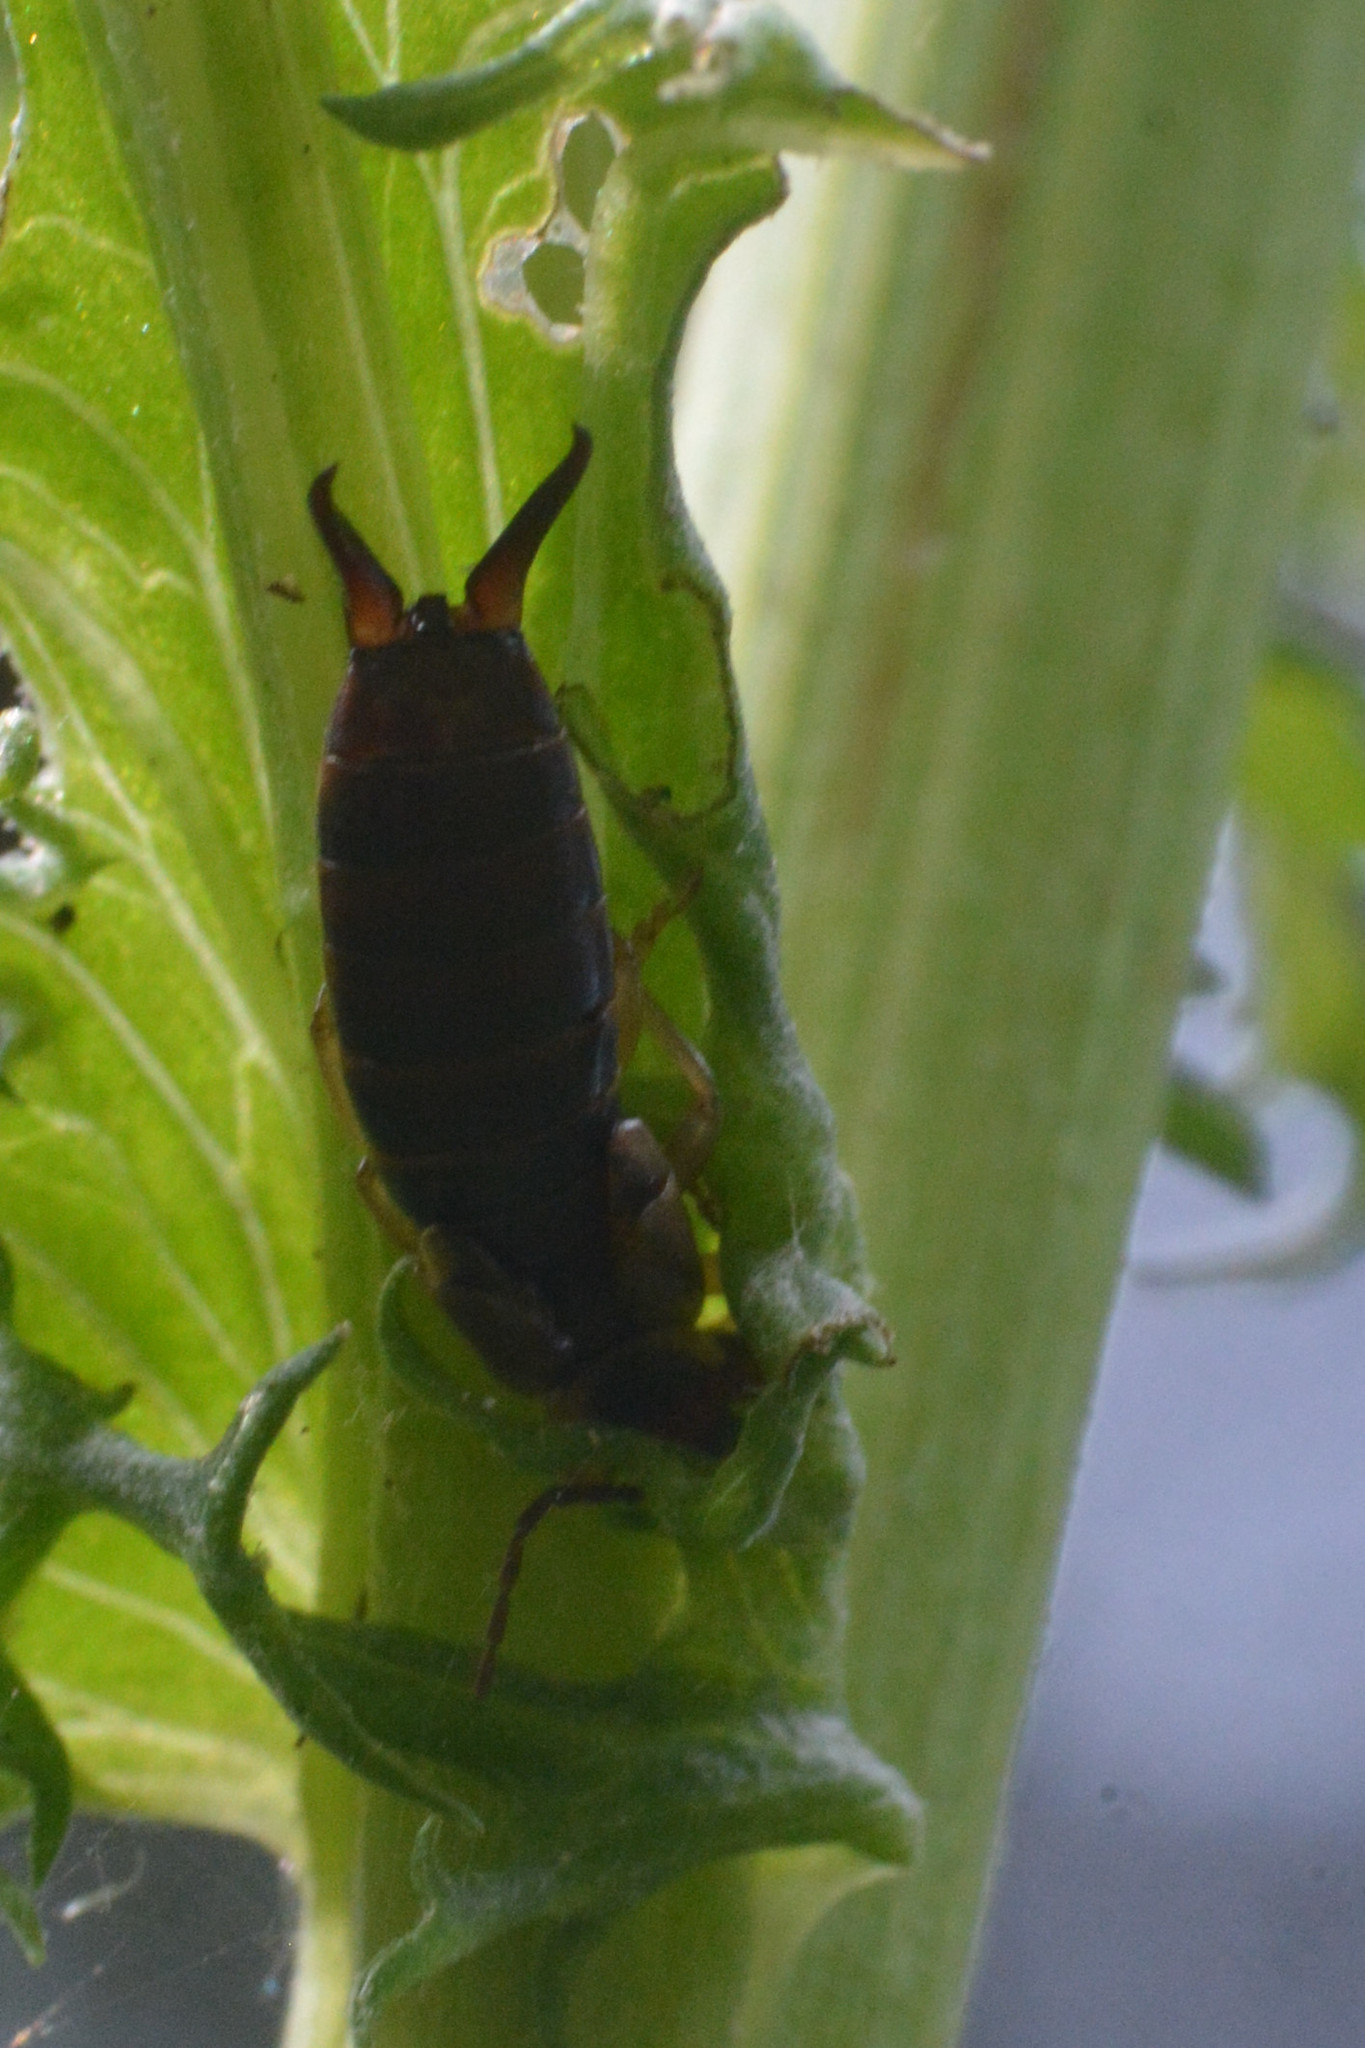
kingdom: Animalia
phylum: Arthropoda
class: Insecta
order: Dermaptera
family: Forficulidae
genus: Forficula
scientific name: Forficula
